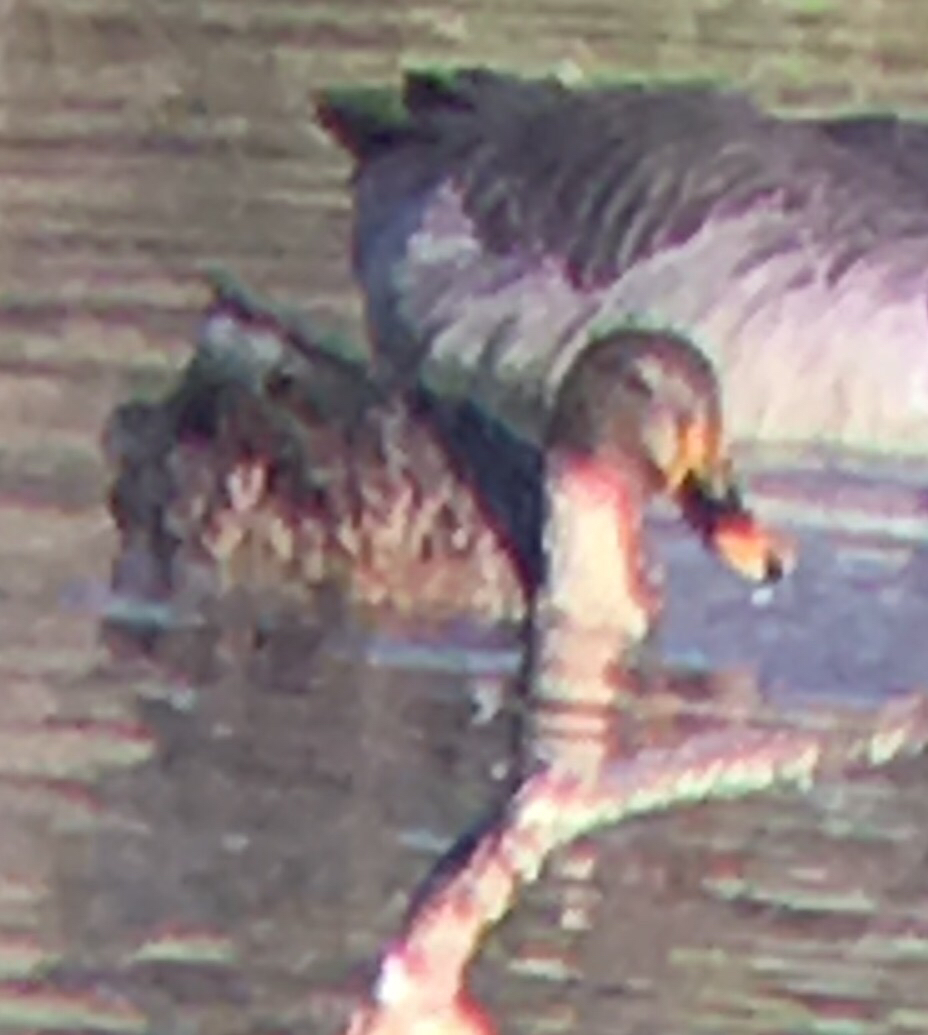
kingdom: Animalia
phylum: Chordata
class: Aves
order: Anseriformes
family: Anatidae
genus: Anas
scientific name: Anas platyrhynchos
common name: Mallard
